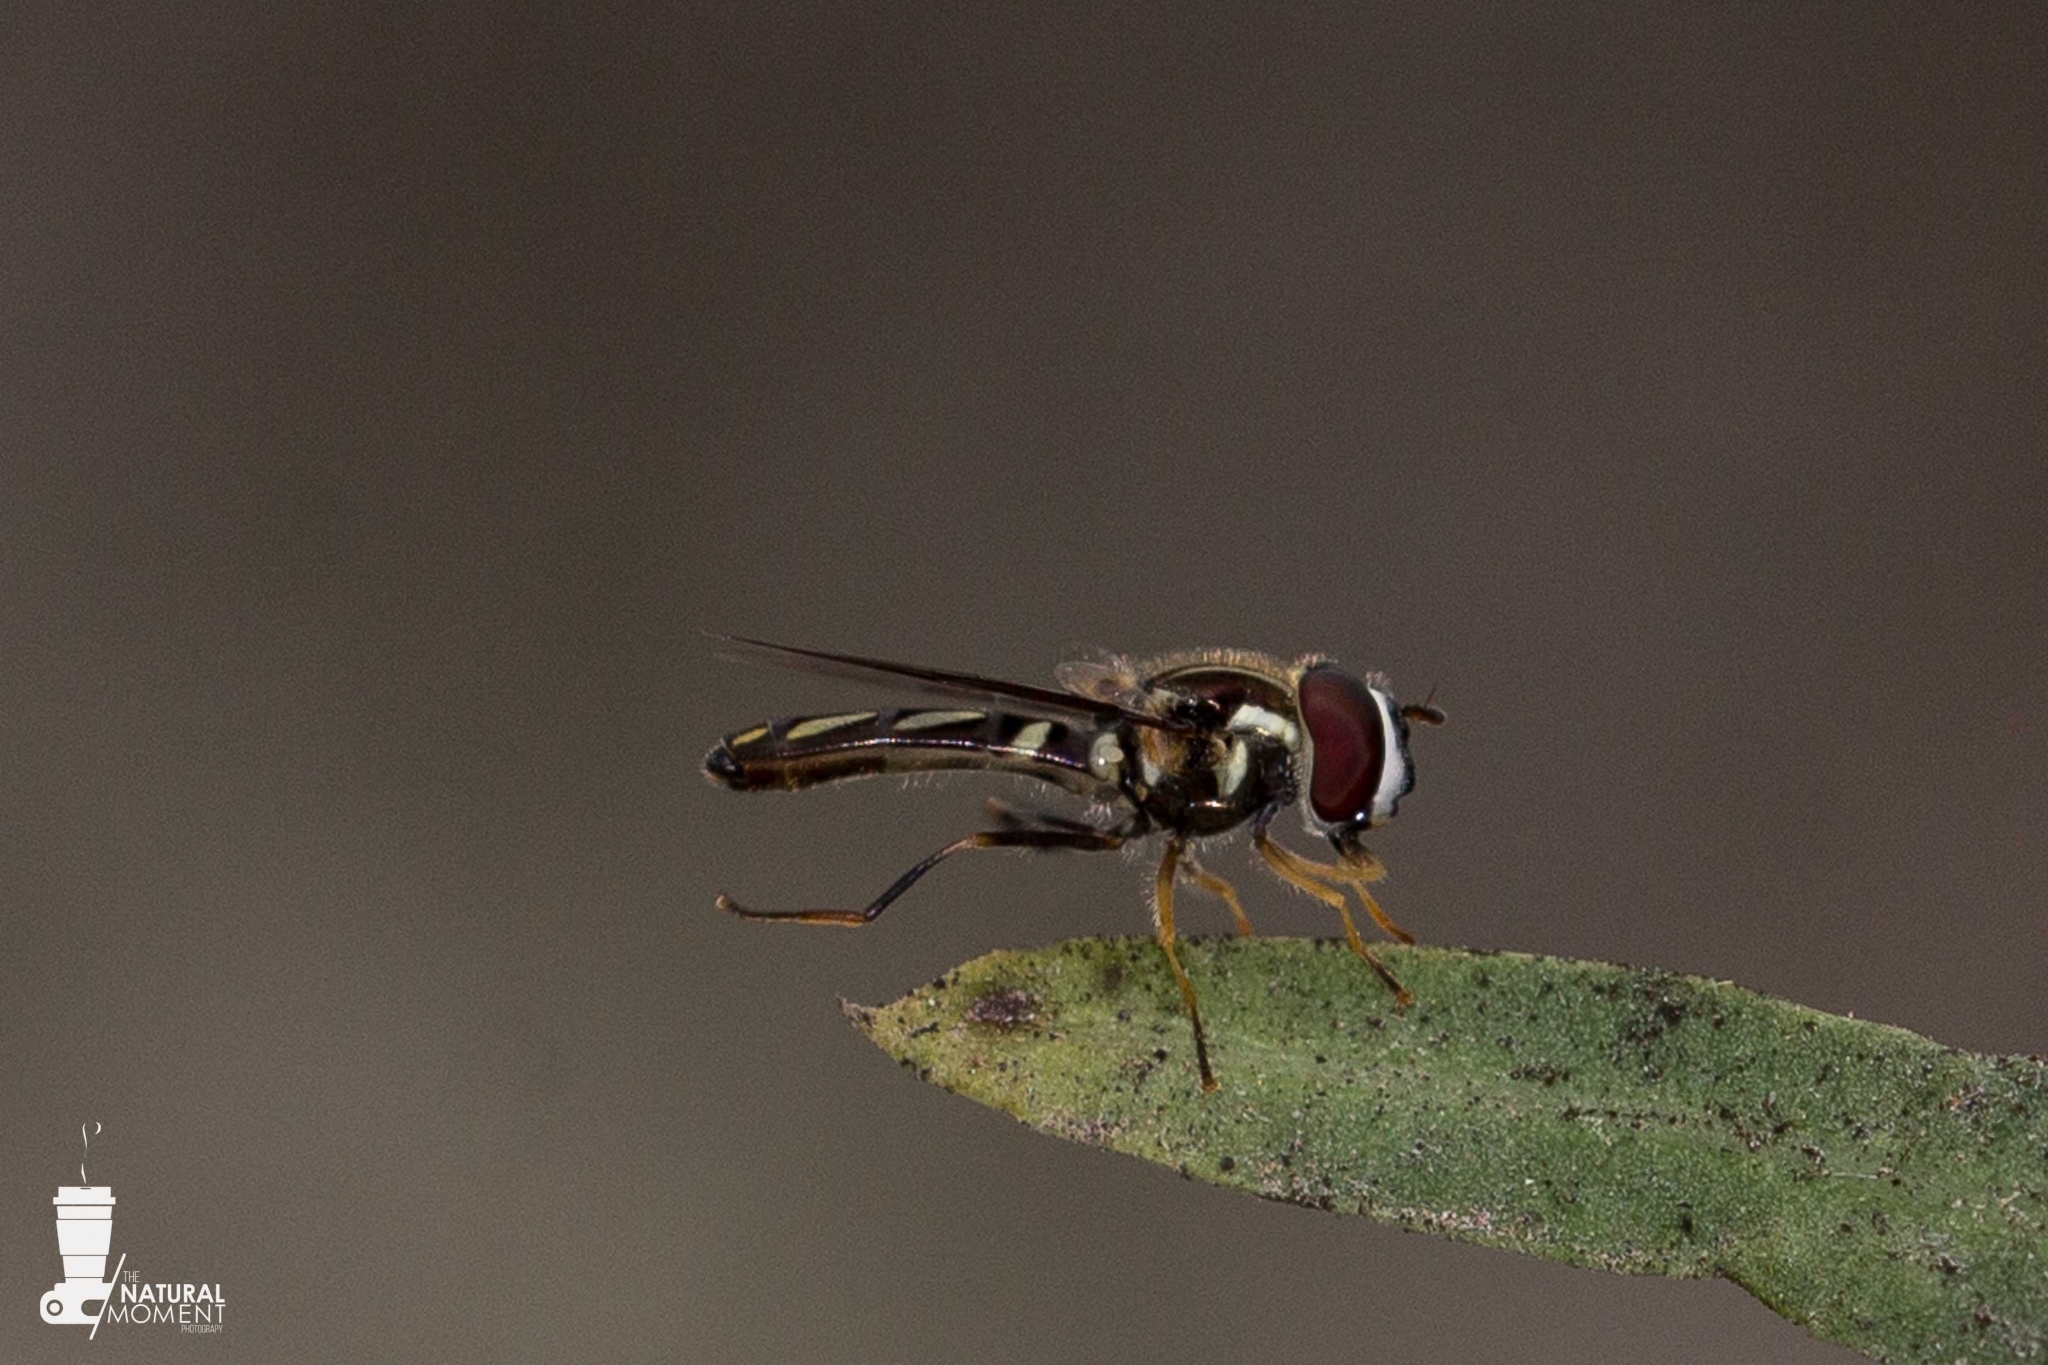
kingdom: Animalia
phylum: Arthropoda
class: Insecta
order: Diptera
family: Syrphidae
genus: Allograpta
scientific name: Allograpta piurana
